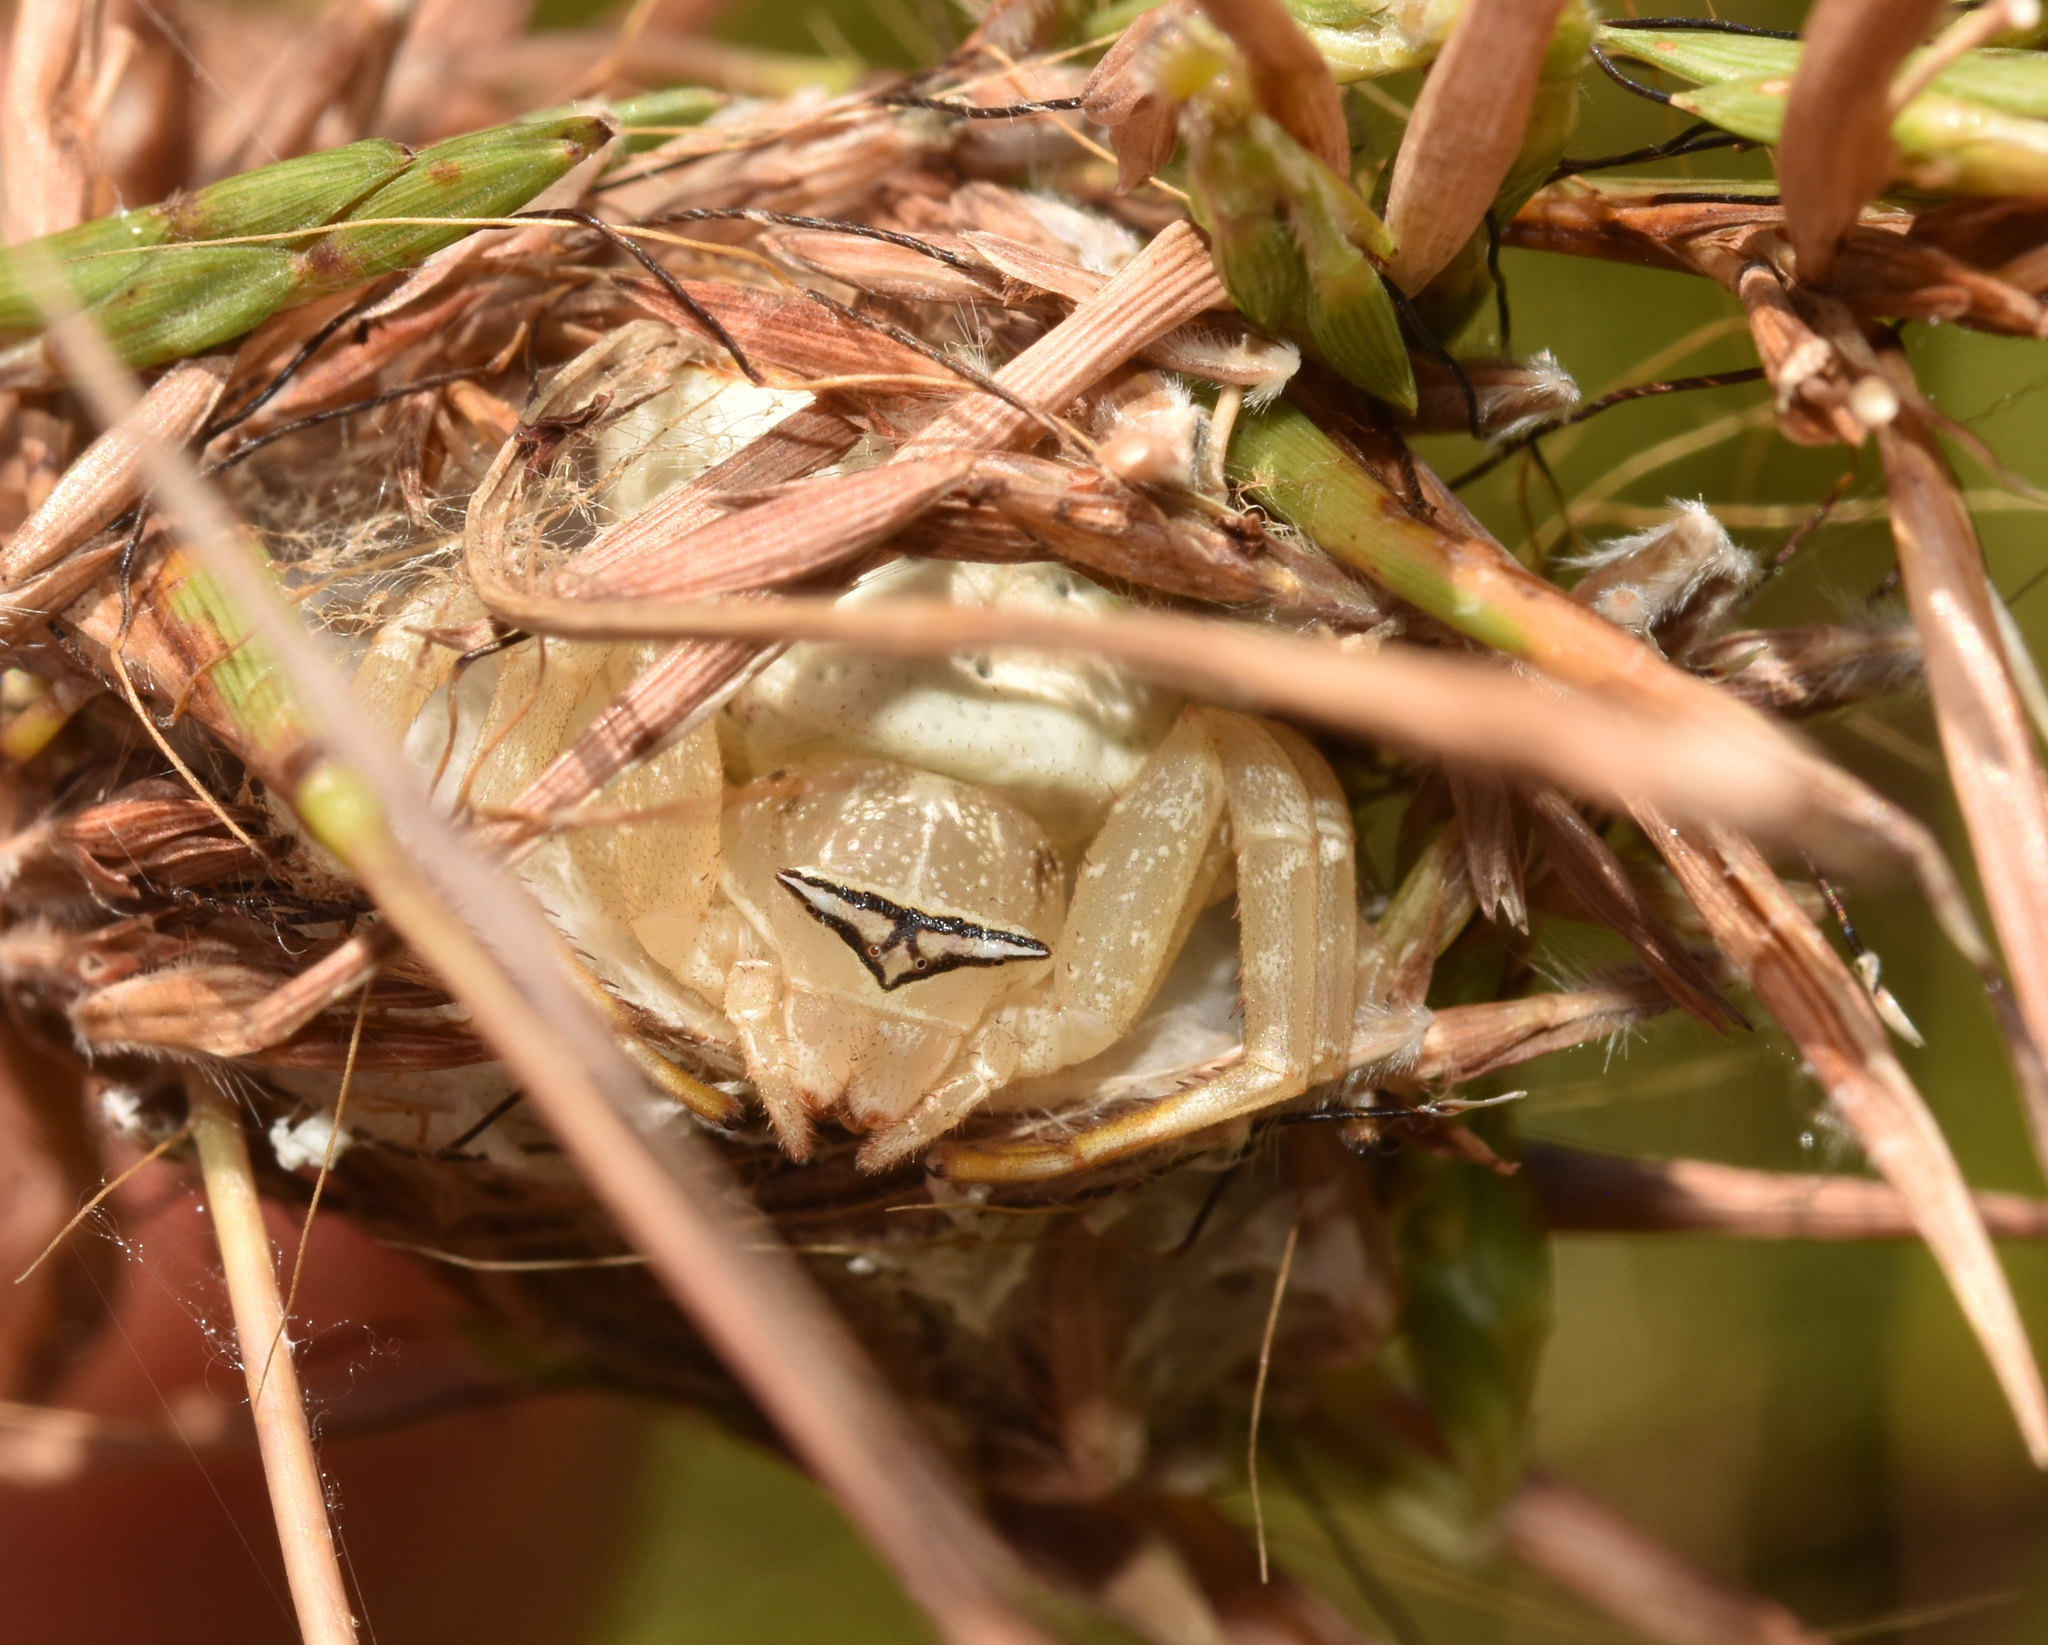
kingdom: Animalia
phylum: Arthropoda
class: Arachnida
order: Araneae
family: Thomisidae
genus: Thomisus
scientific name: Thomisus blandus
